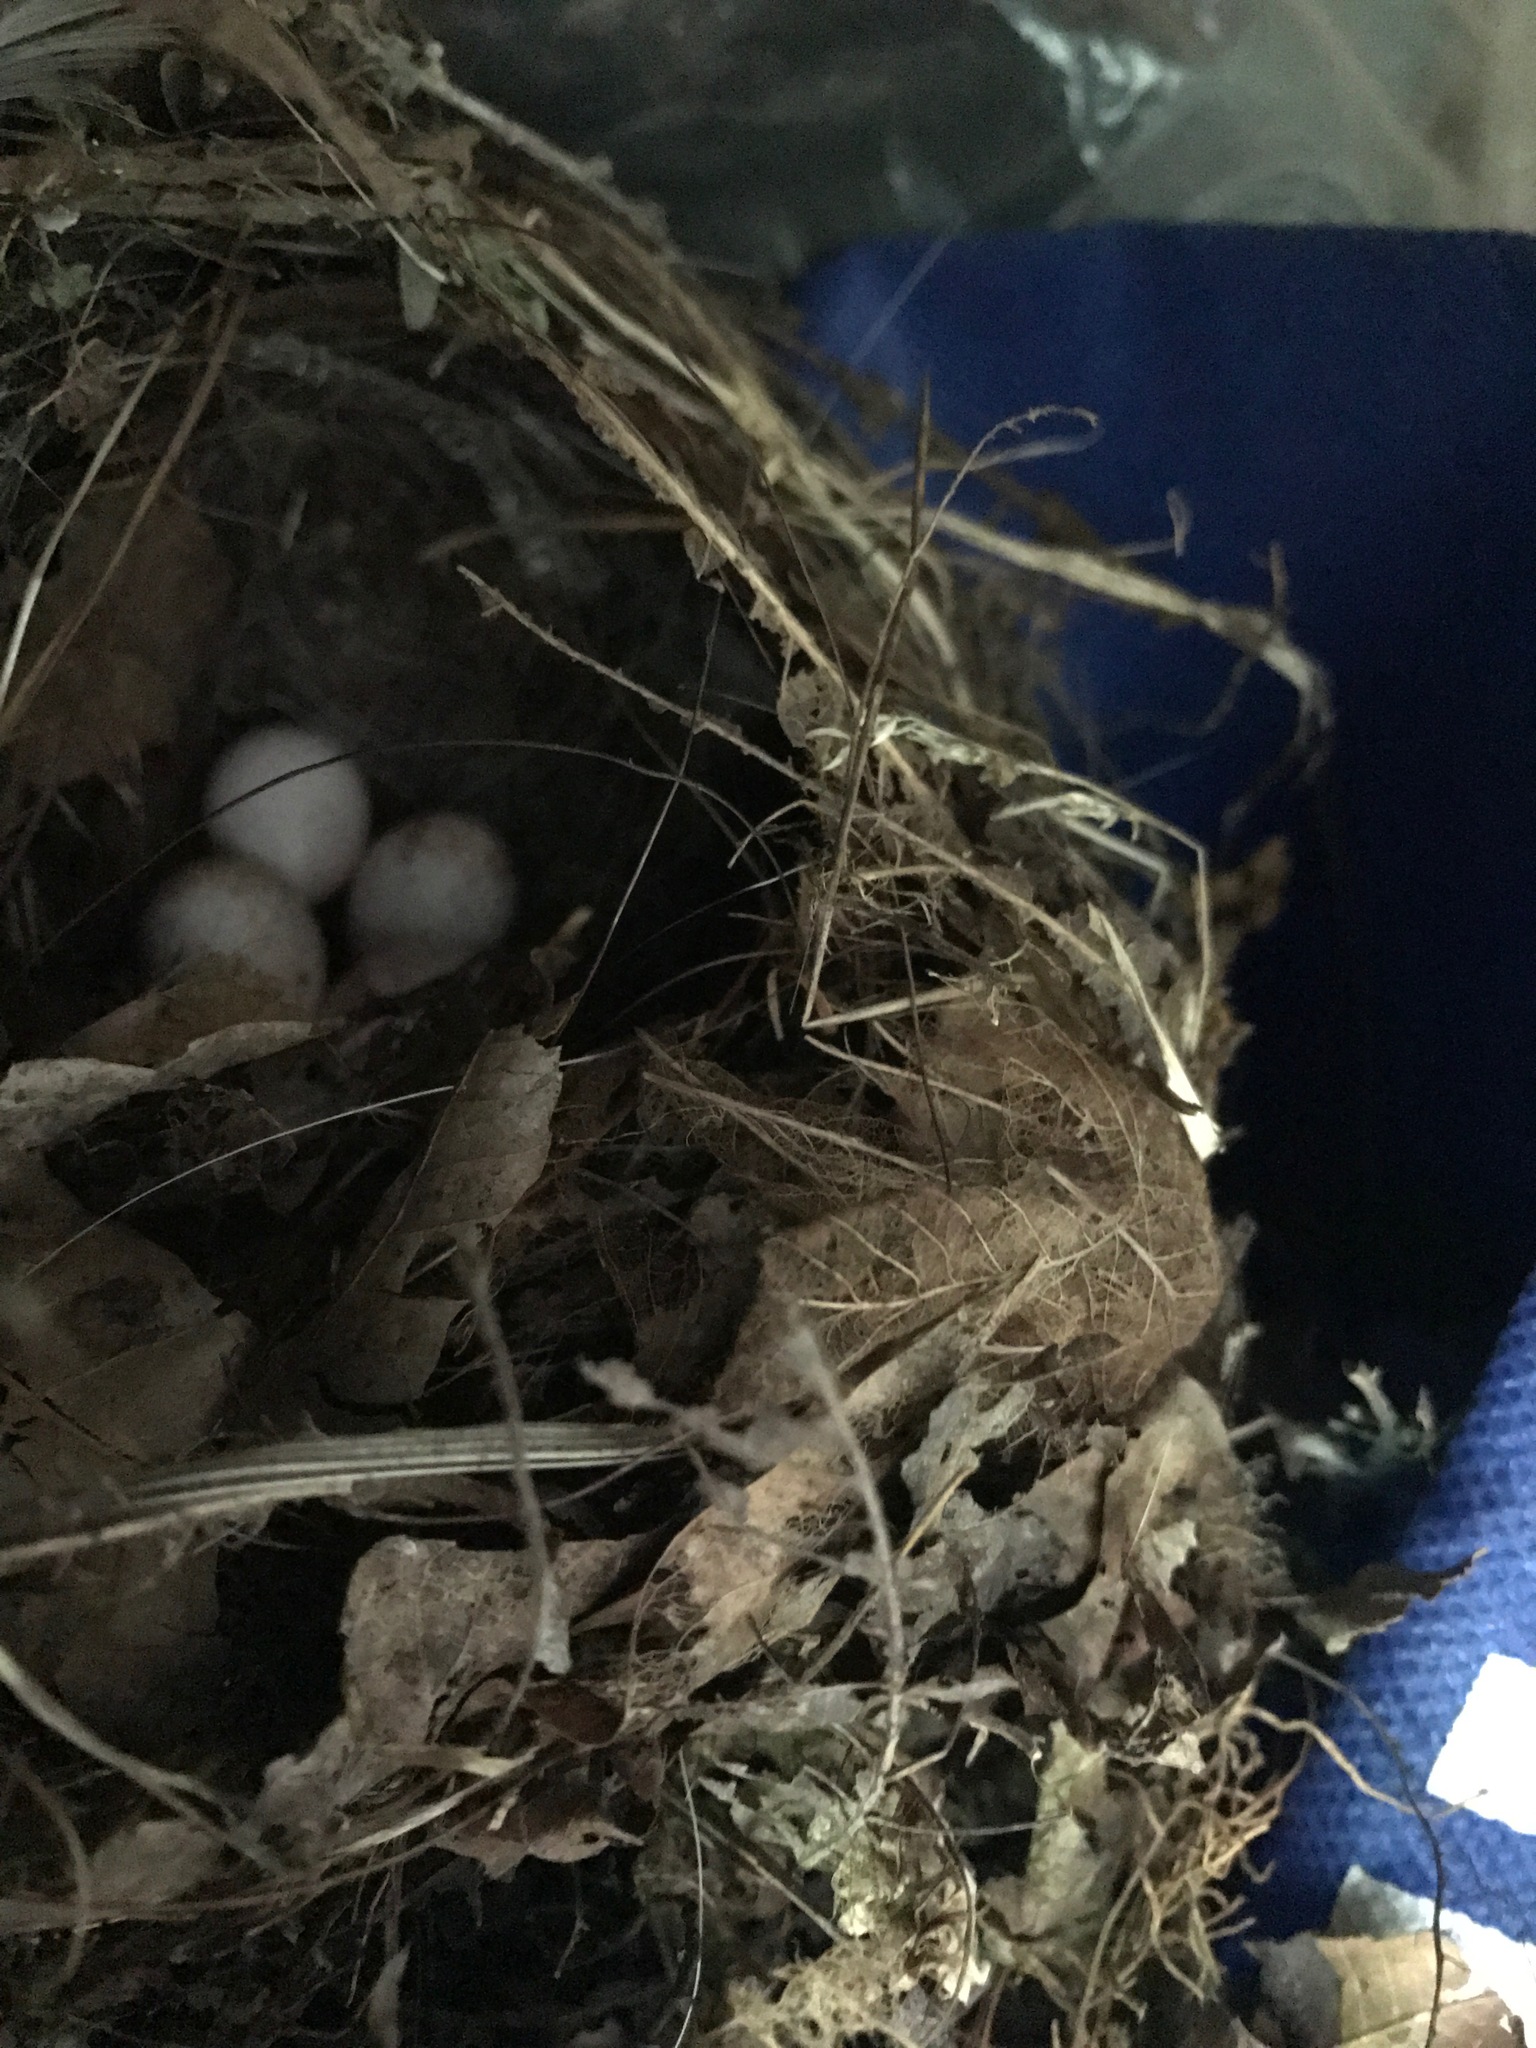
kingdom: Animalia
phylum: Chordata
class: Aves
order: Passeriformes
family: Troglodytidae
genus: Thryothorus
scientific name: Thryothorus ludovicianus
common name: Carolina wren
